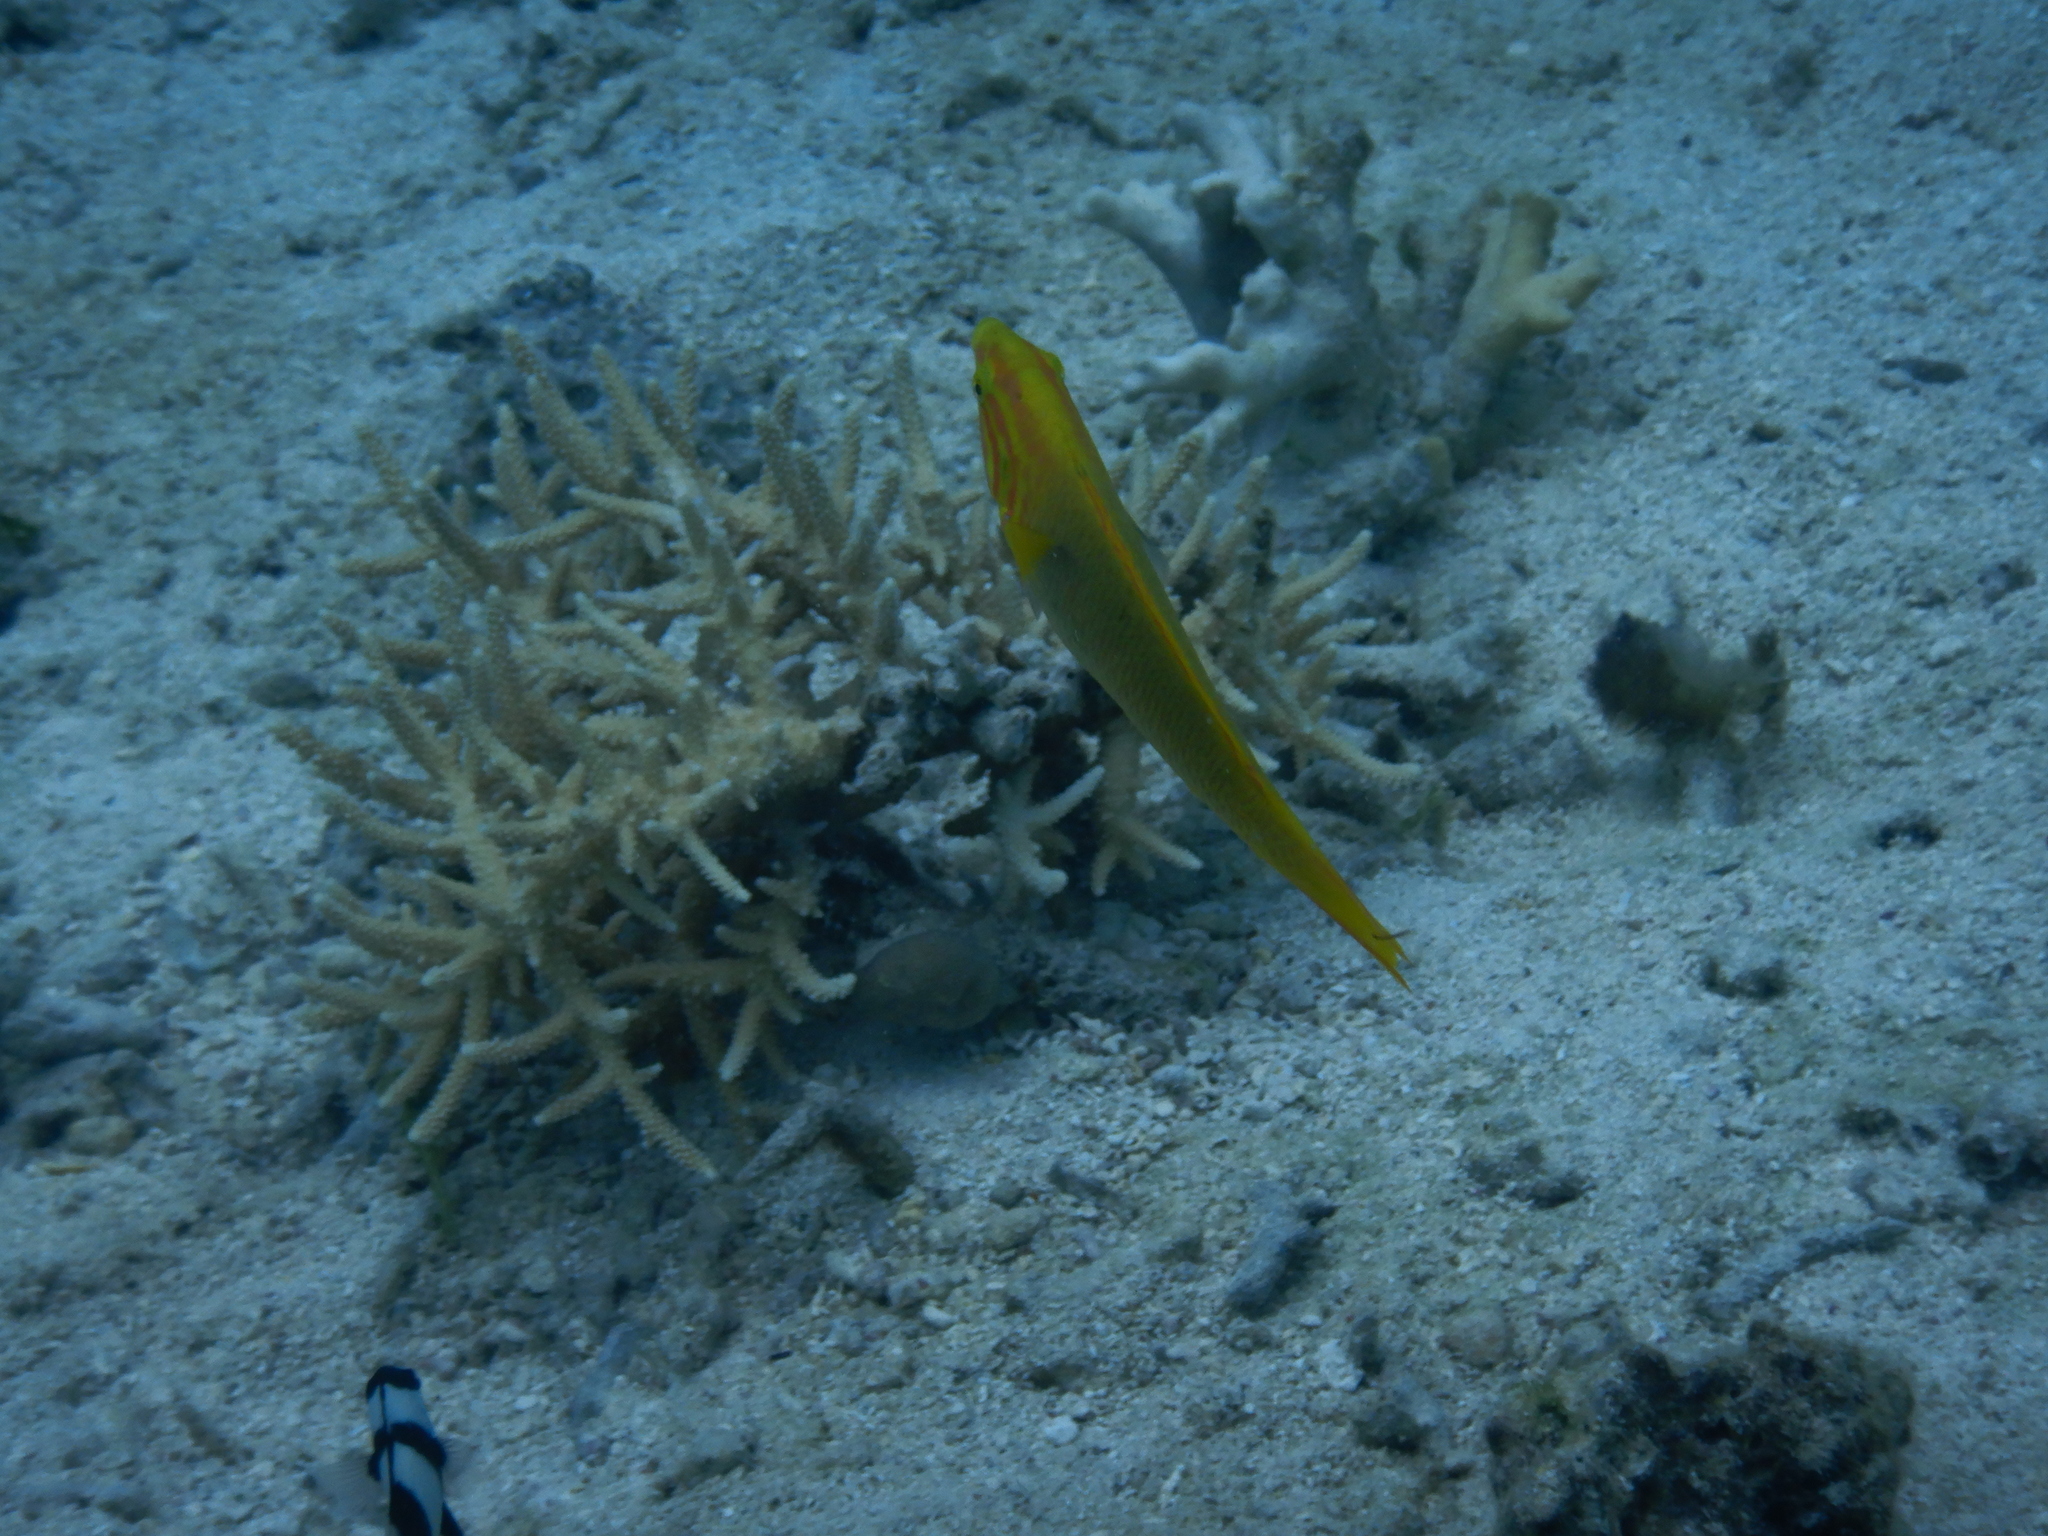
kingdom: Animalia
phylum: Chordata
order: Perciformes
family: Labridae
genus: Thalassoma
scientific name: Thalassoma lutescens
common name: Green moon wrasse
